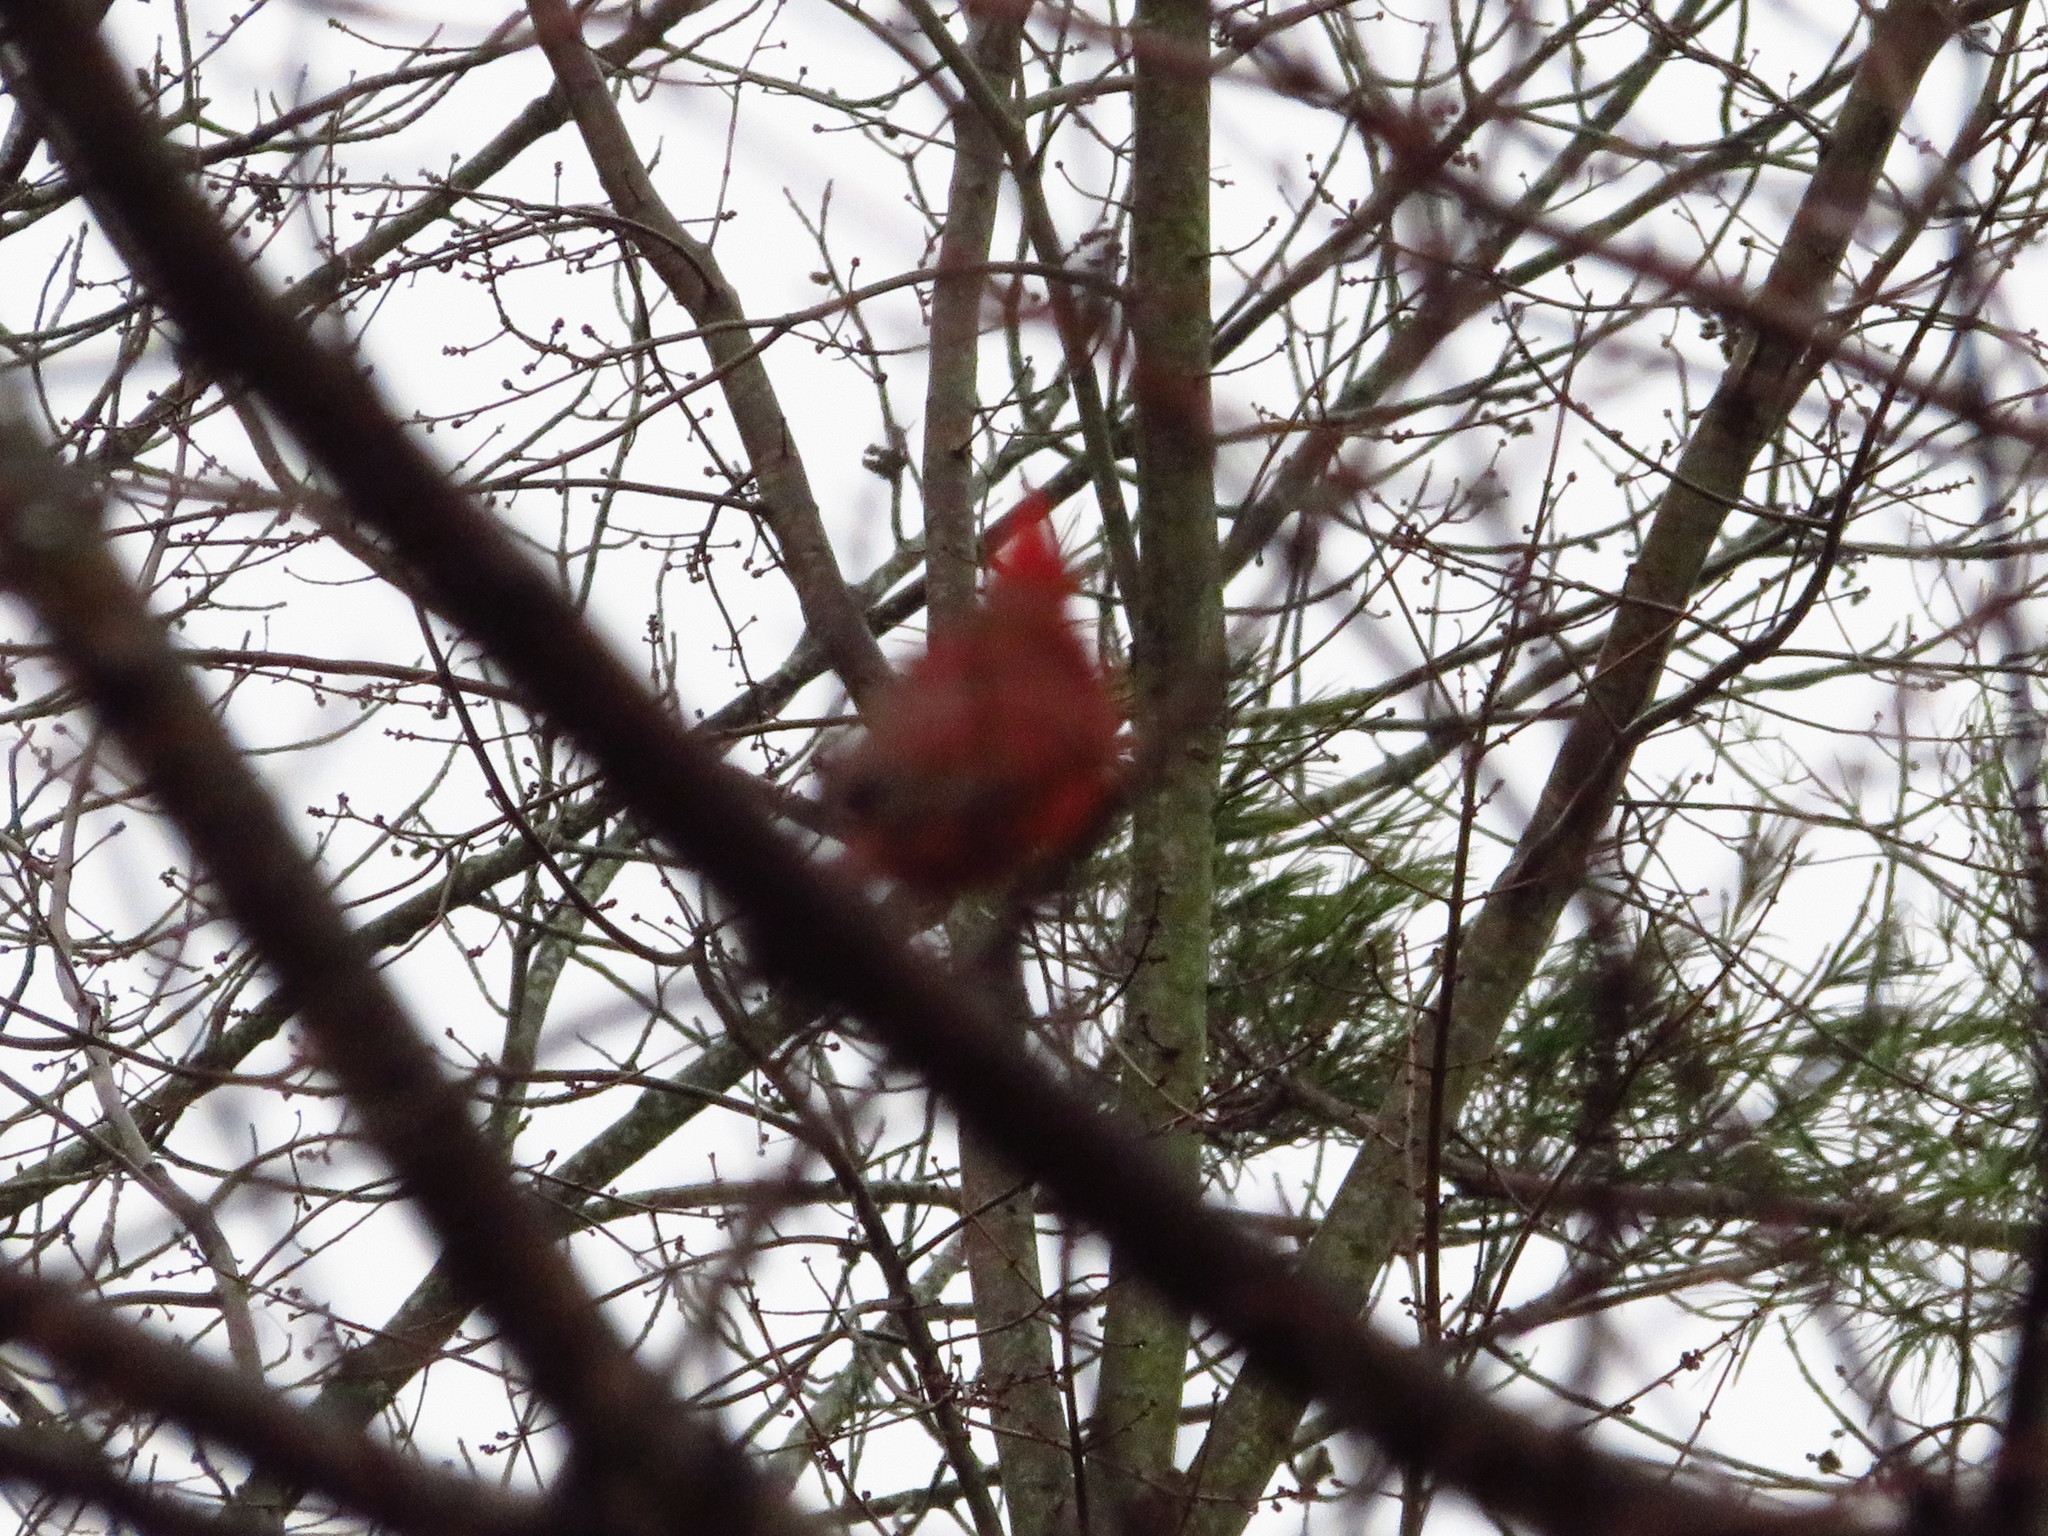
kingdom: Animalia
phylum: Chordata
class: Aves
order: Passeriformes
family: Cardinalidae
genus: Cardinalis
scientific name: Cardinalis cardinalis
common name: Northern cardinal
